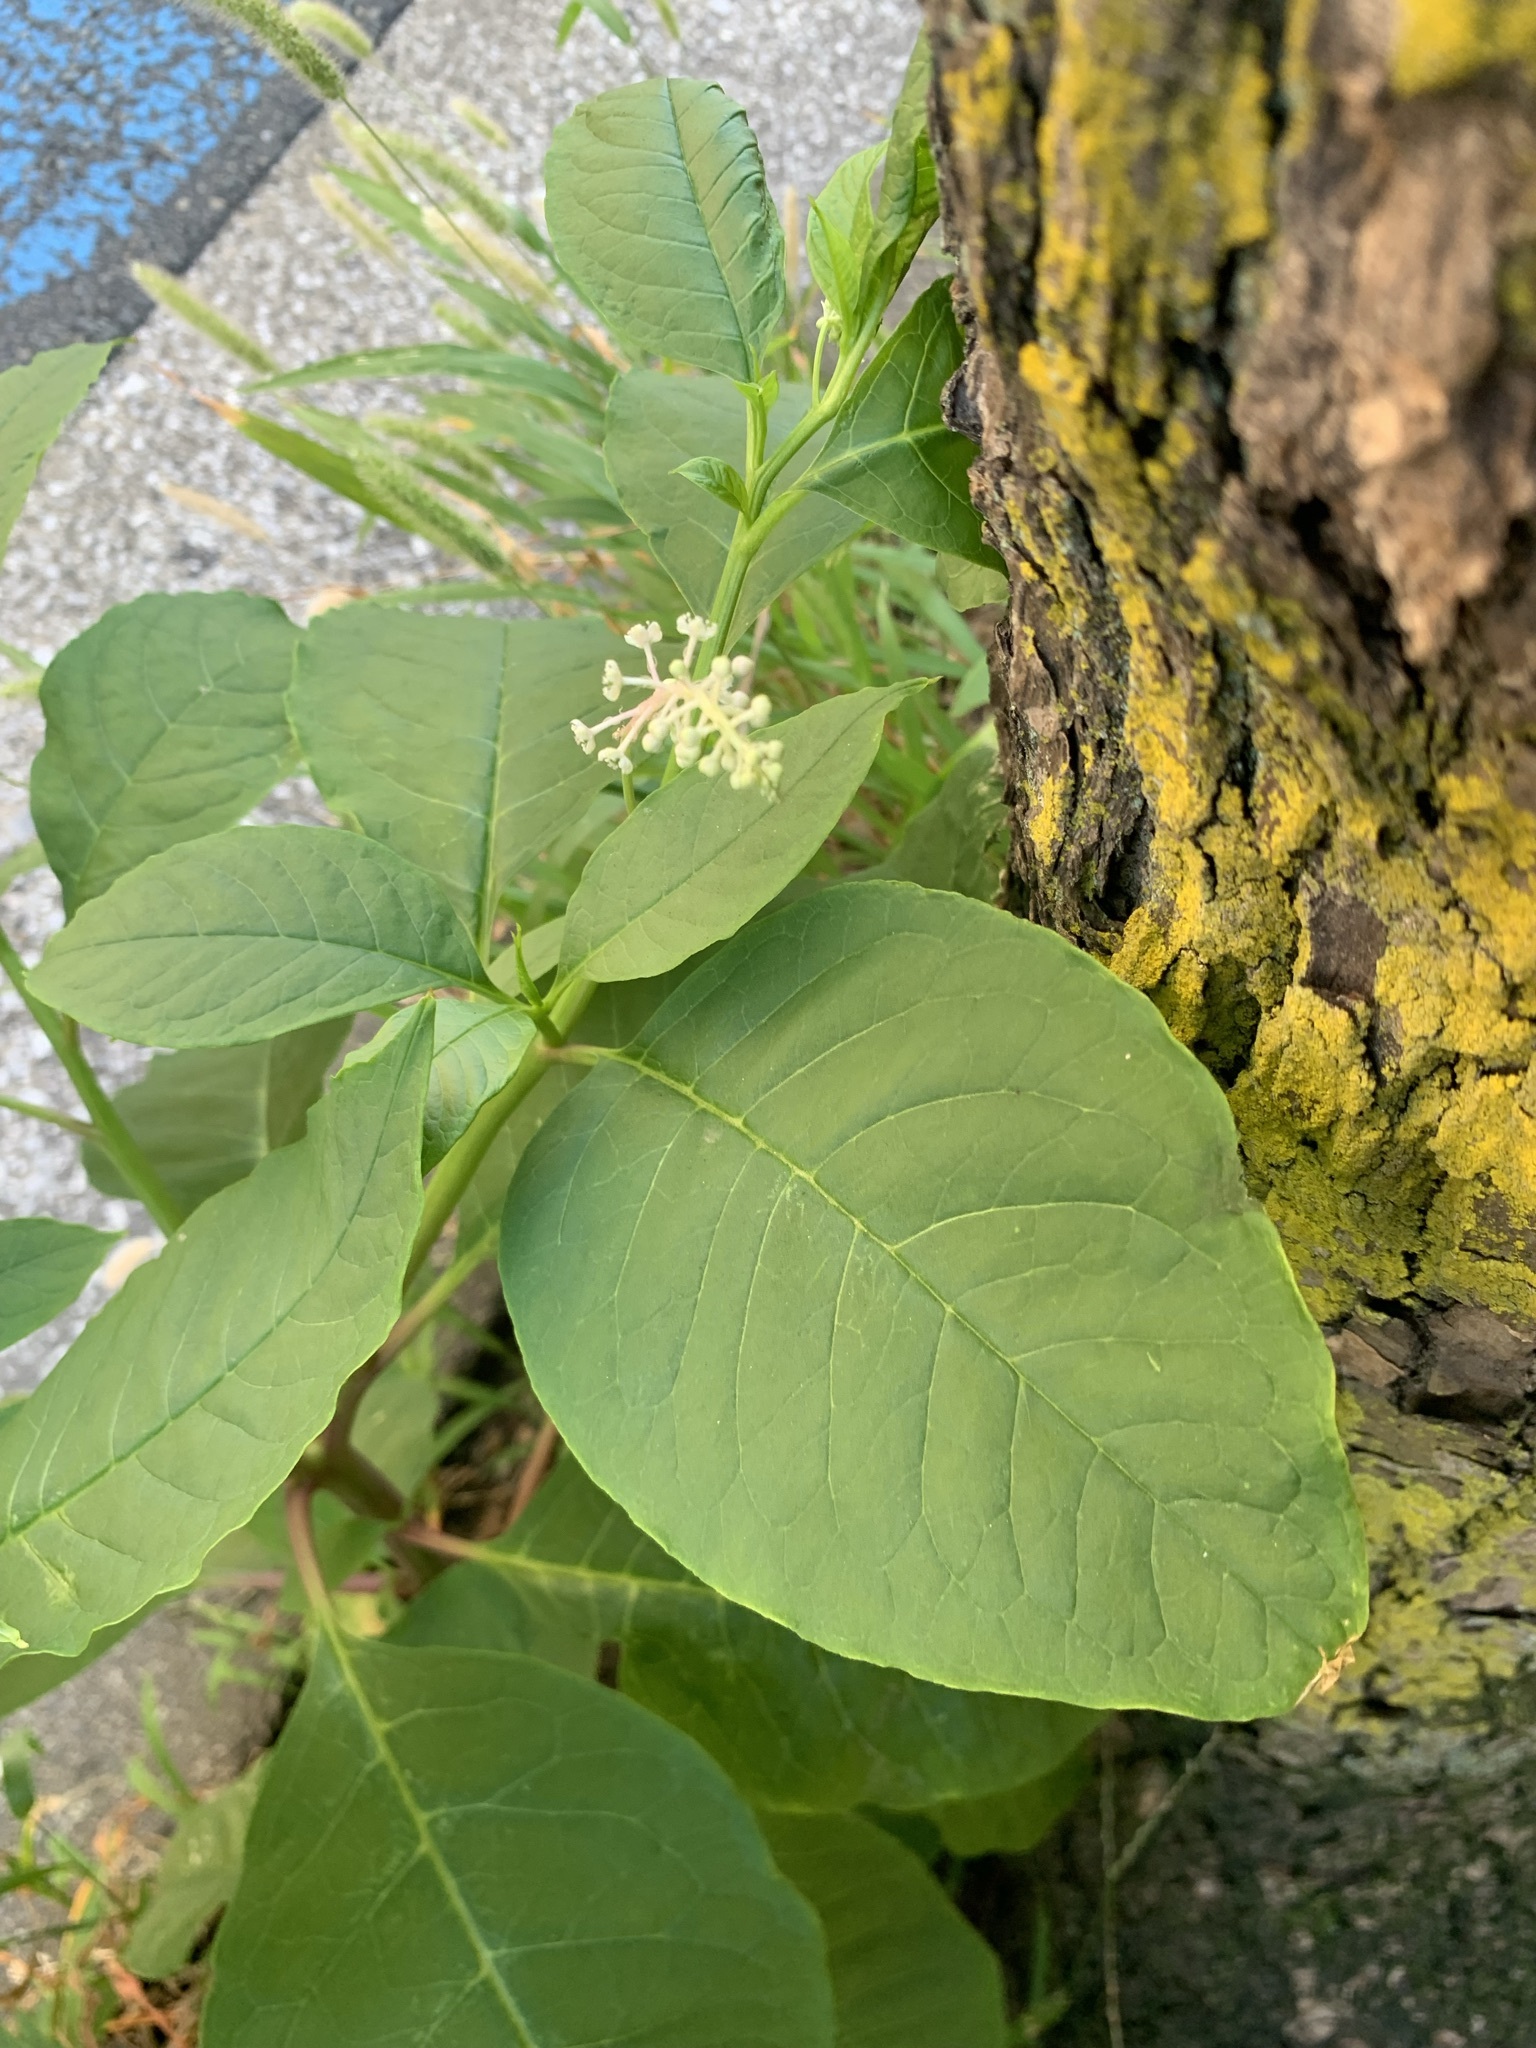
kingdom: Plantae
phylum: Tracheophyta
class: Magnoliopsida
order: Caryophyllales
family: Phytolaccaceae
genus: Phytolacca
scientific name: Phytolacca americana
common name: American pokeweed
